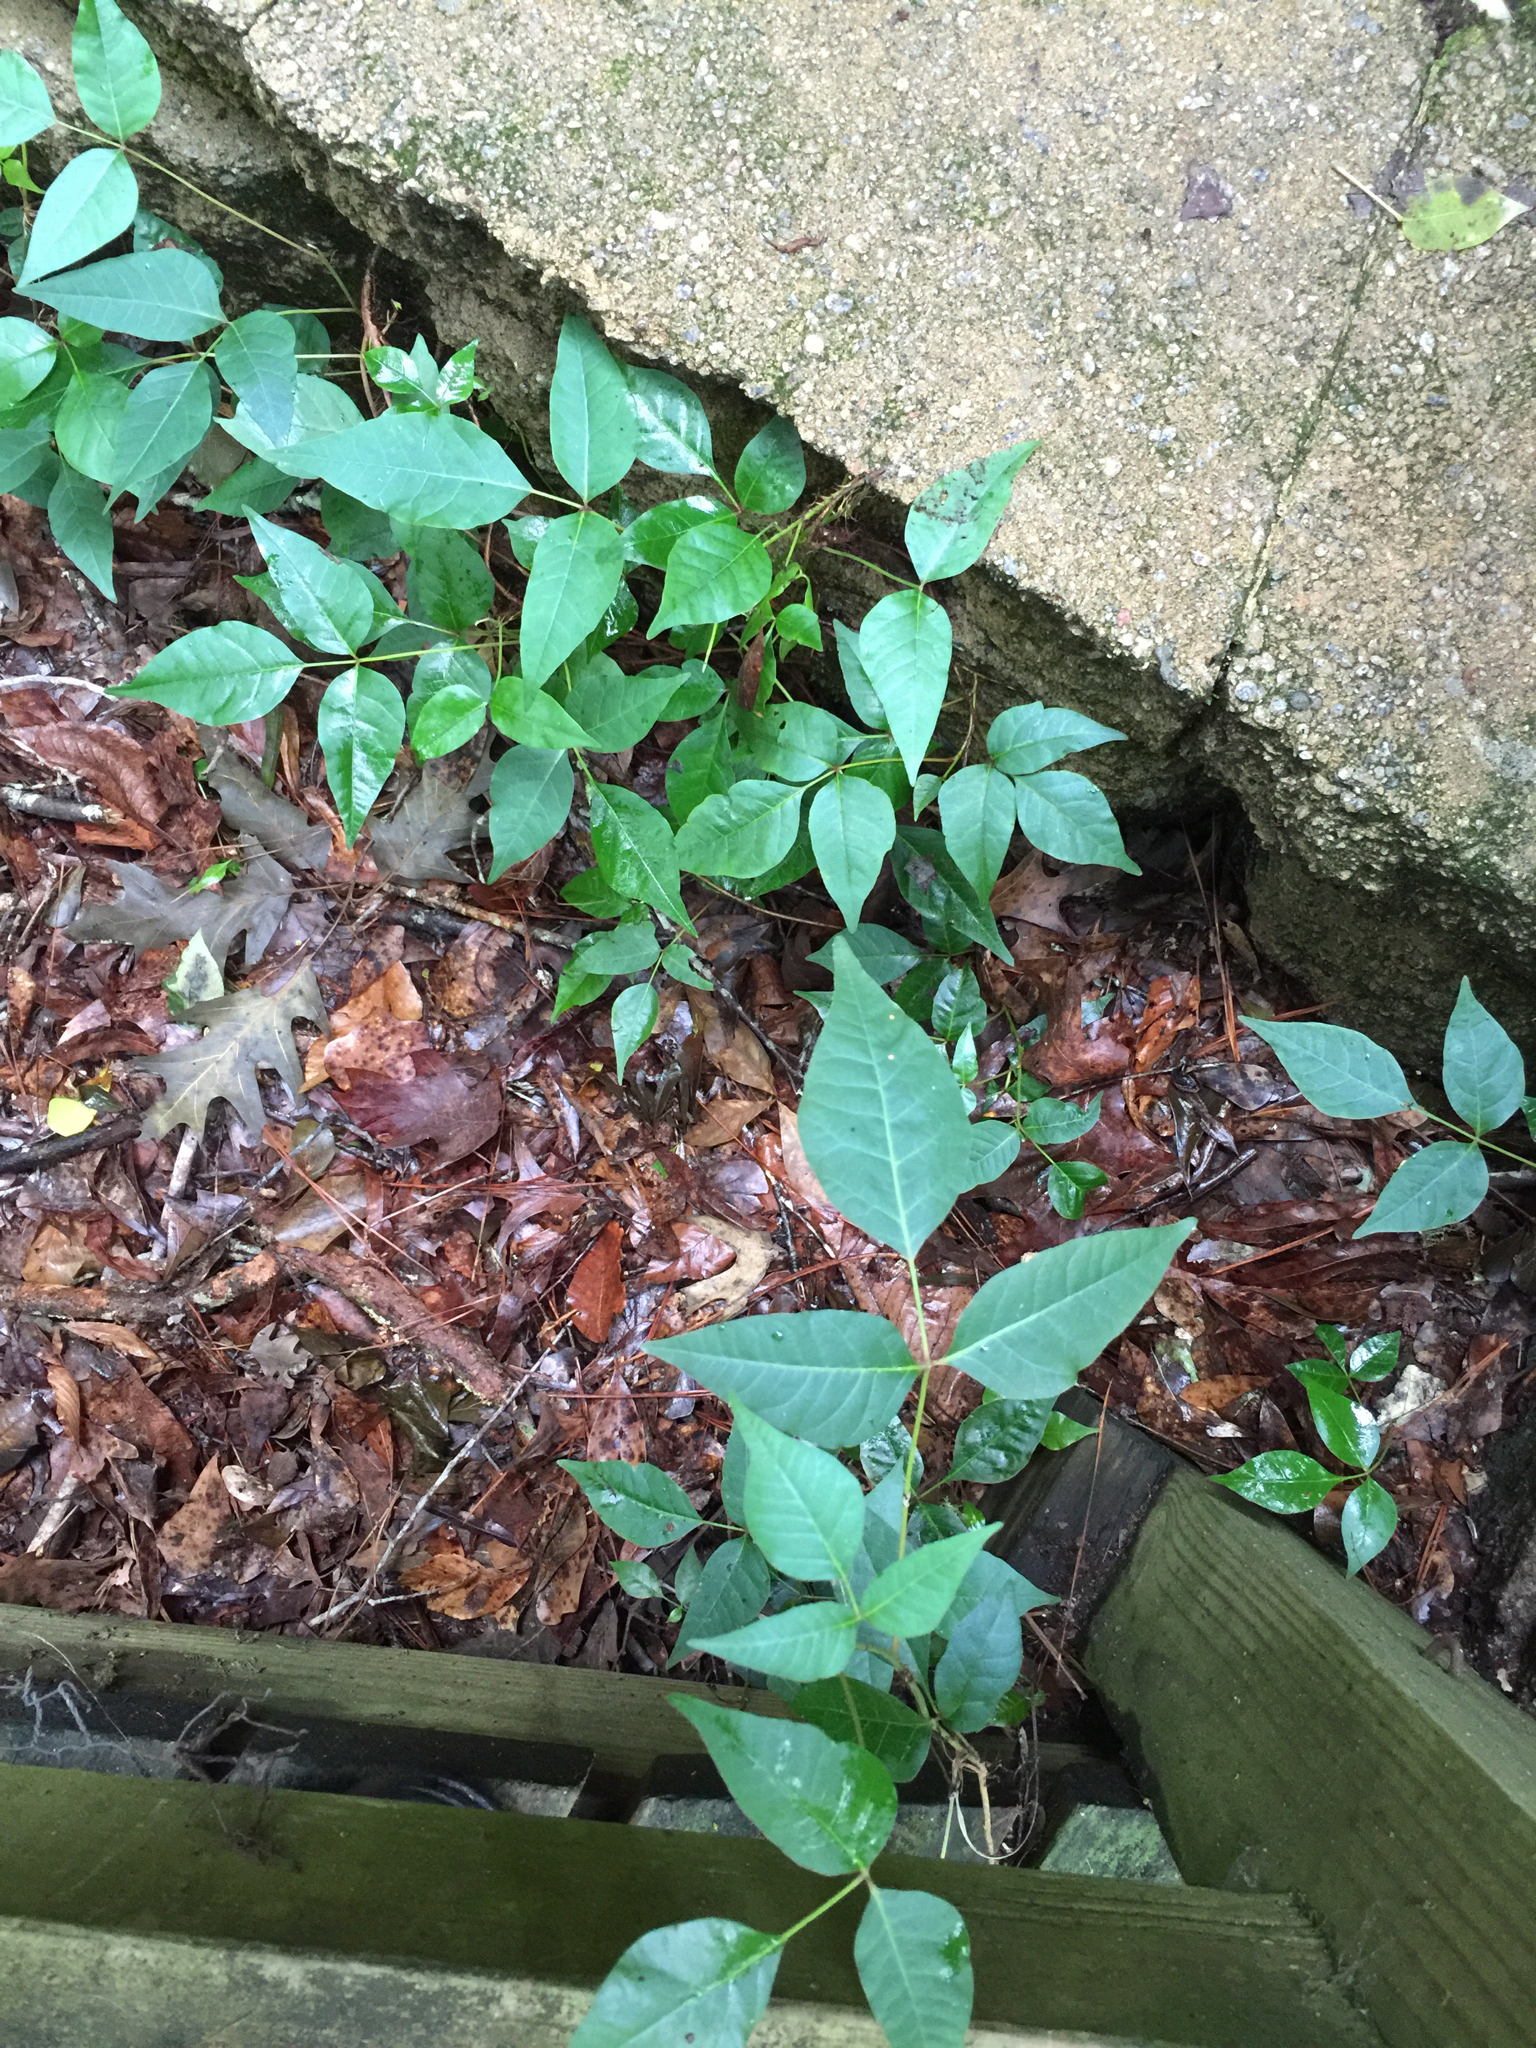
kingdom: Plantae
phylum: Tracheophyta
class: Magnoliopsida
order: Sapindales
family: Anacardiaceae
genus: Toxicodendron
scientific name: Toxicodendron radicans
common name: Poison ivy
